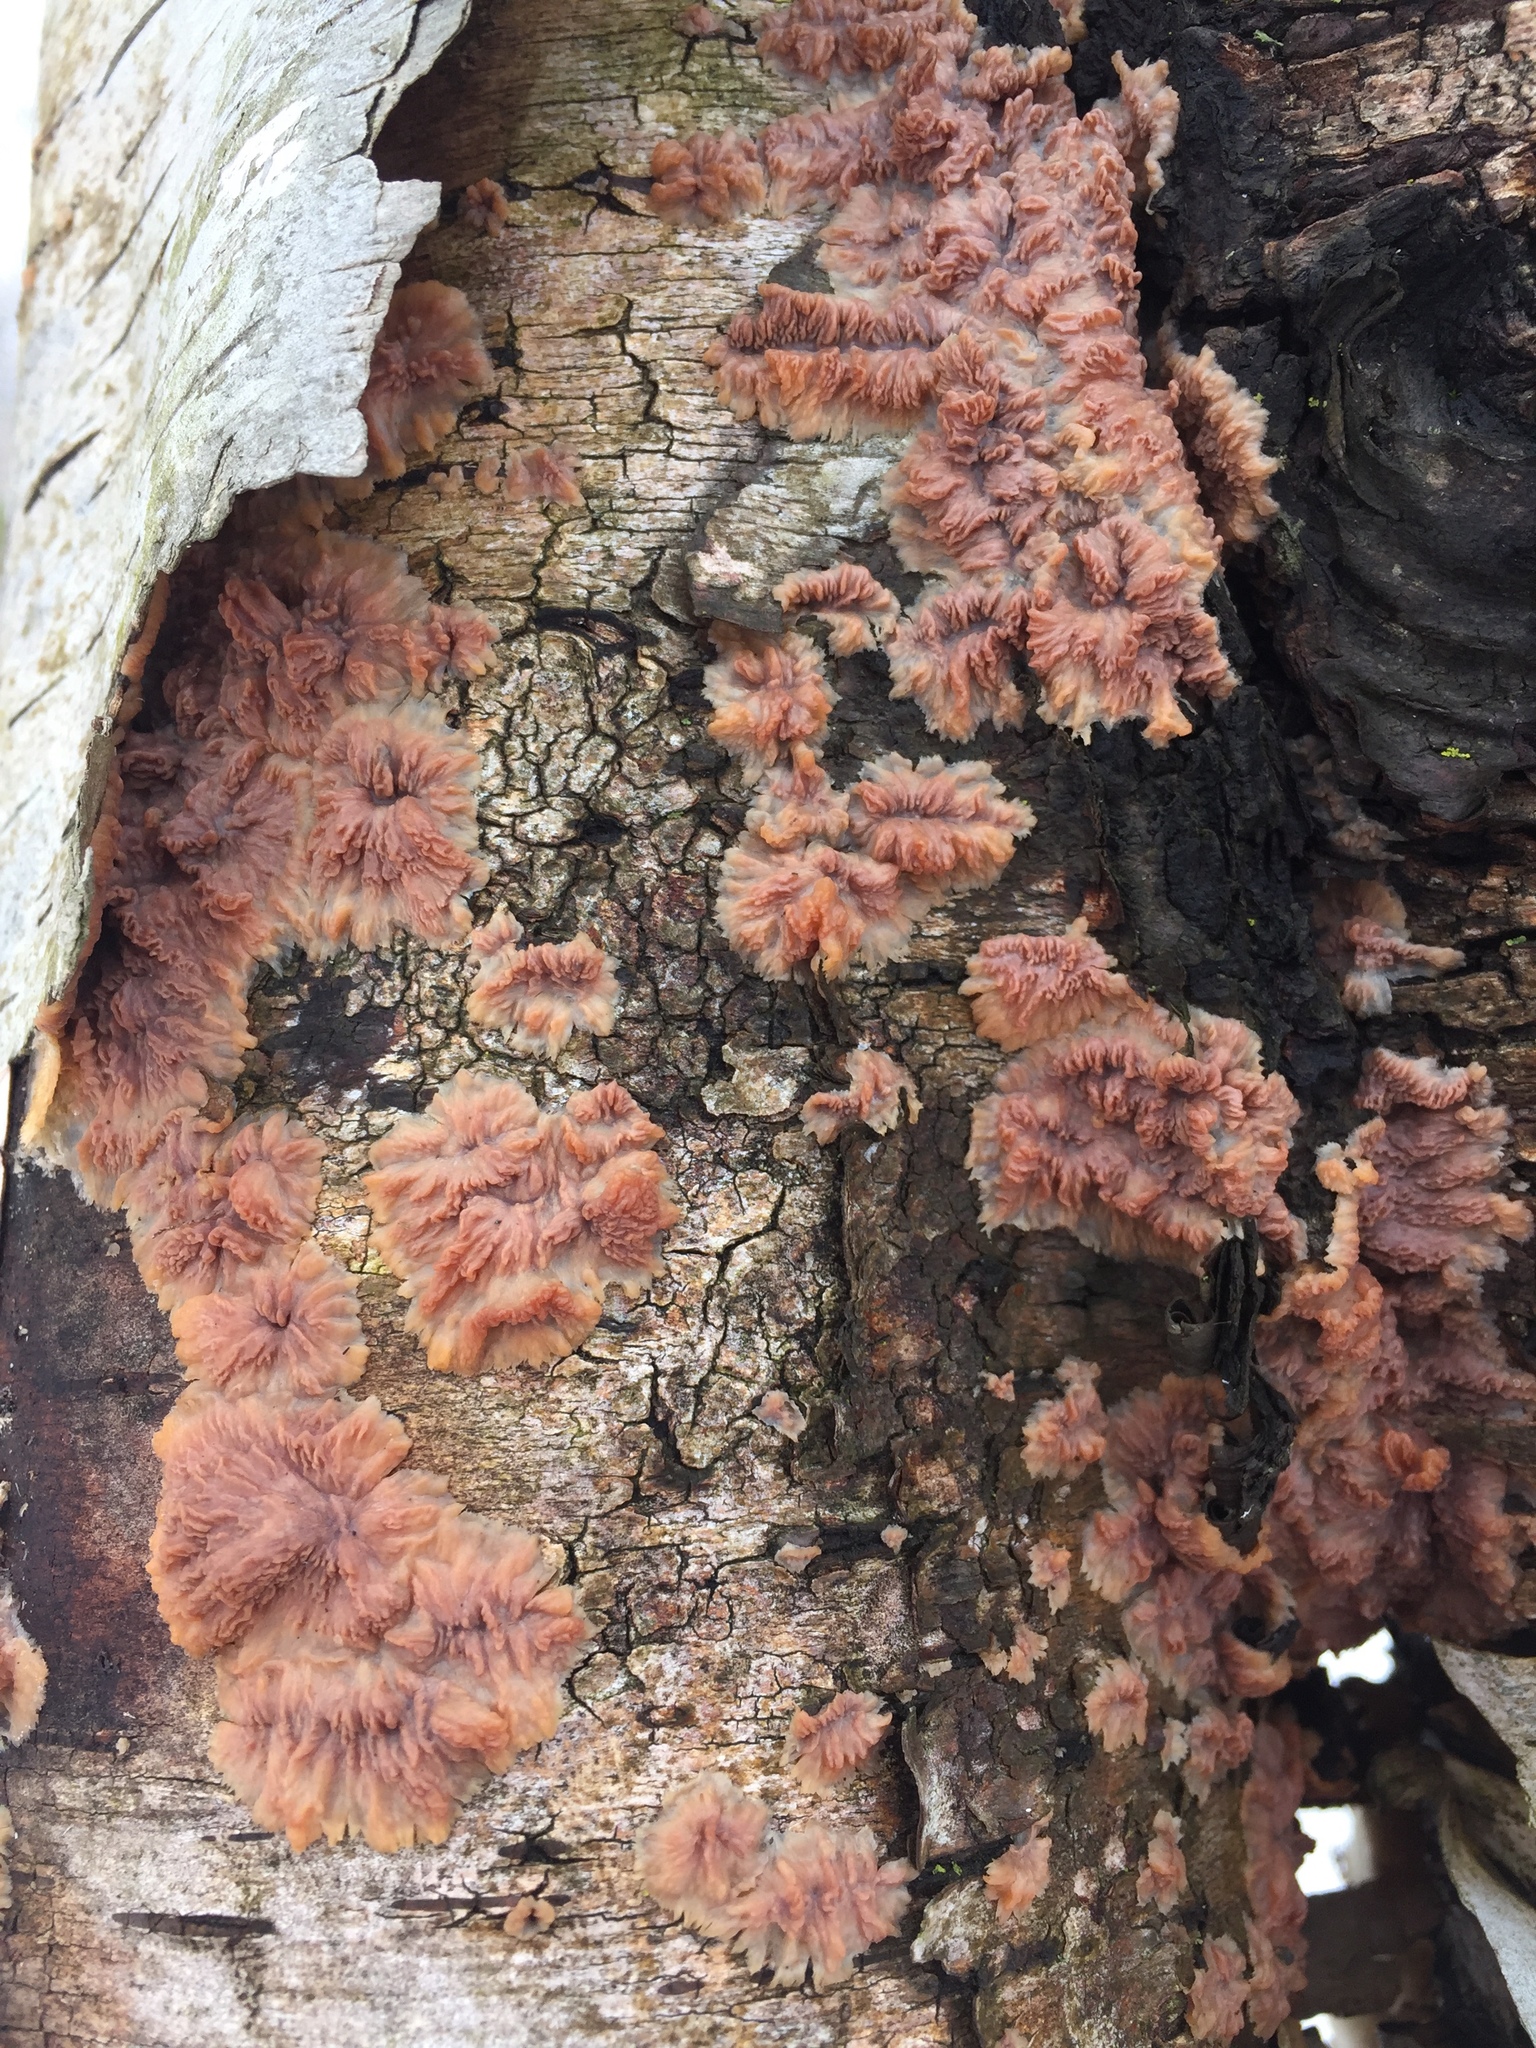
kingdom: Fungi
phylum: Basidiomycota
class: Agaricomycetes
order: Polyporales
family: Meruliaceae
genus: Phlebia
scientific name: Phlebia radiata
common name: Wrinkled crust
